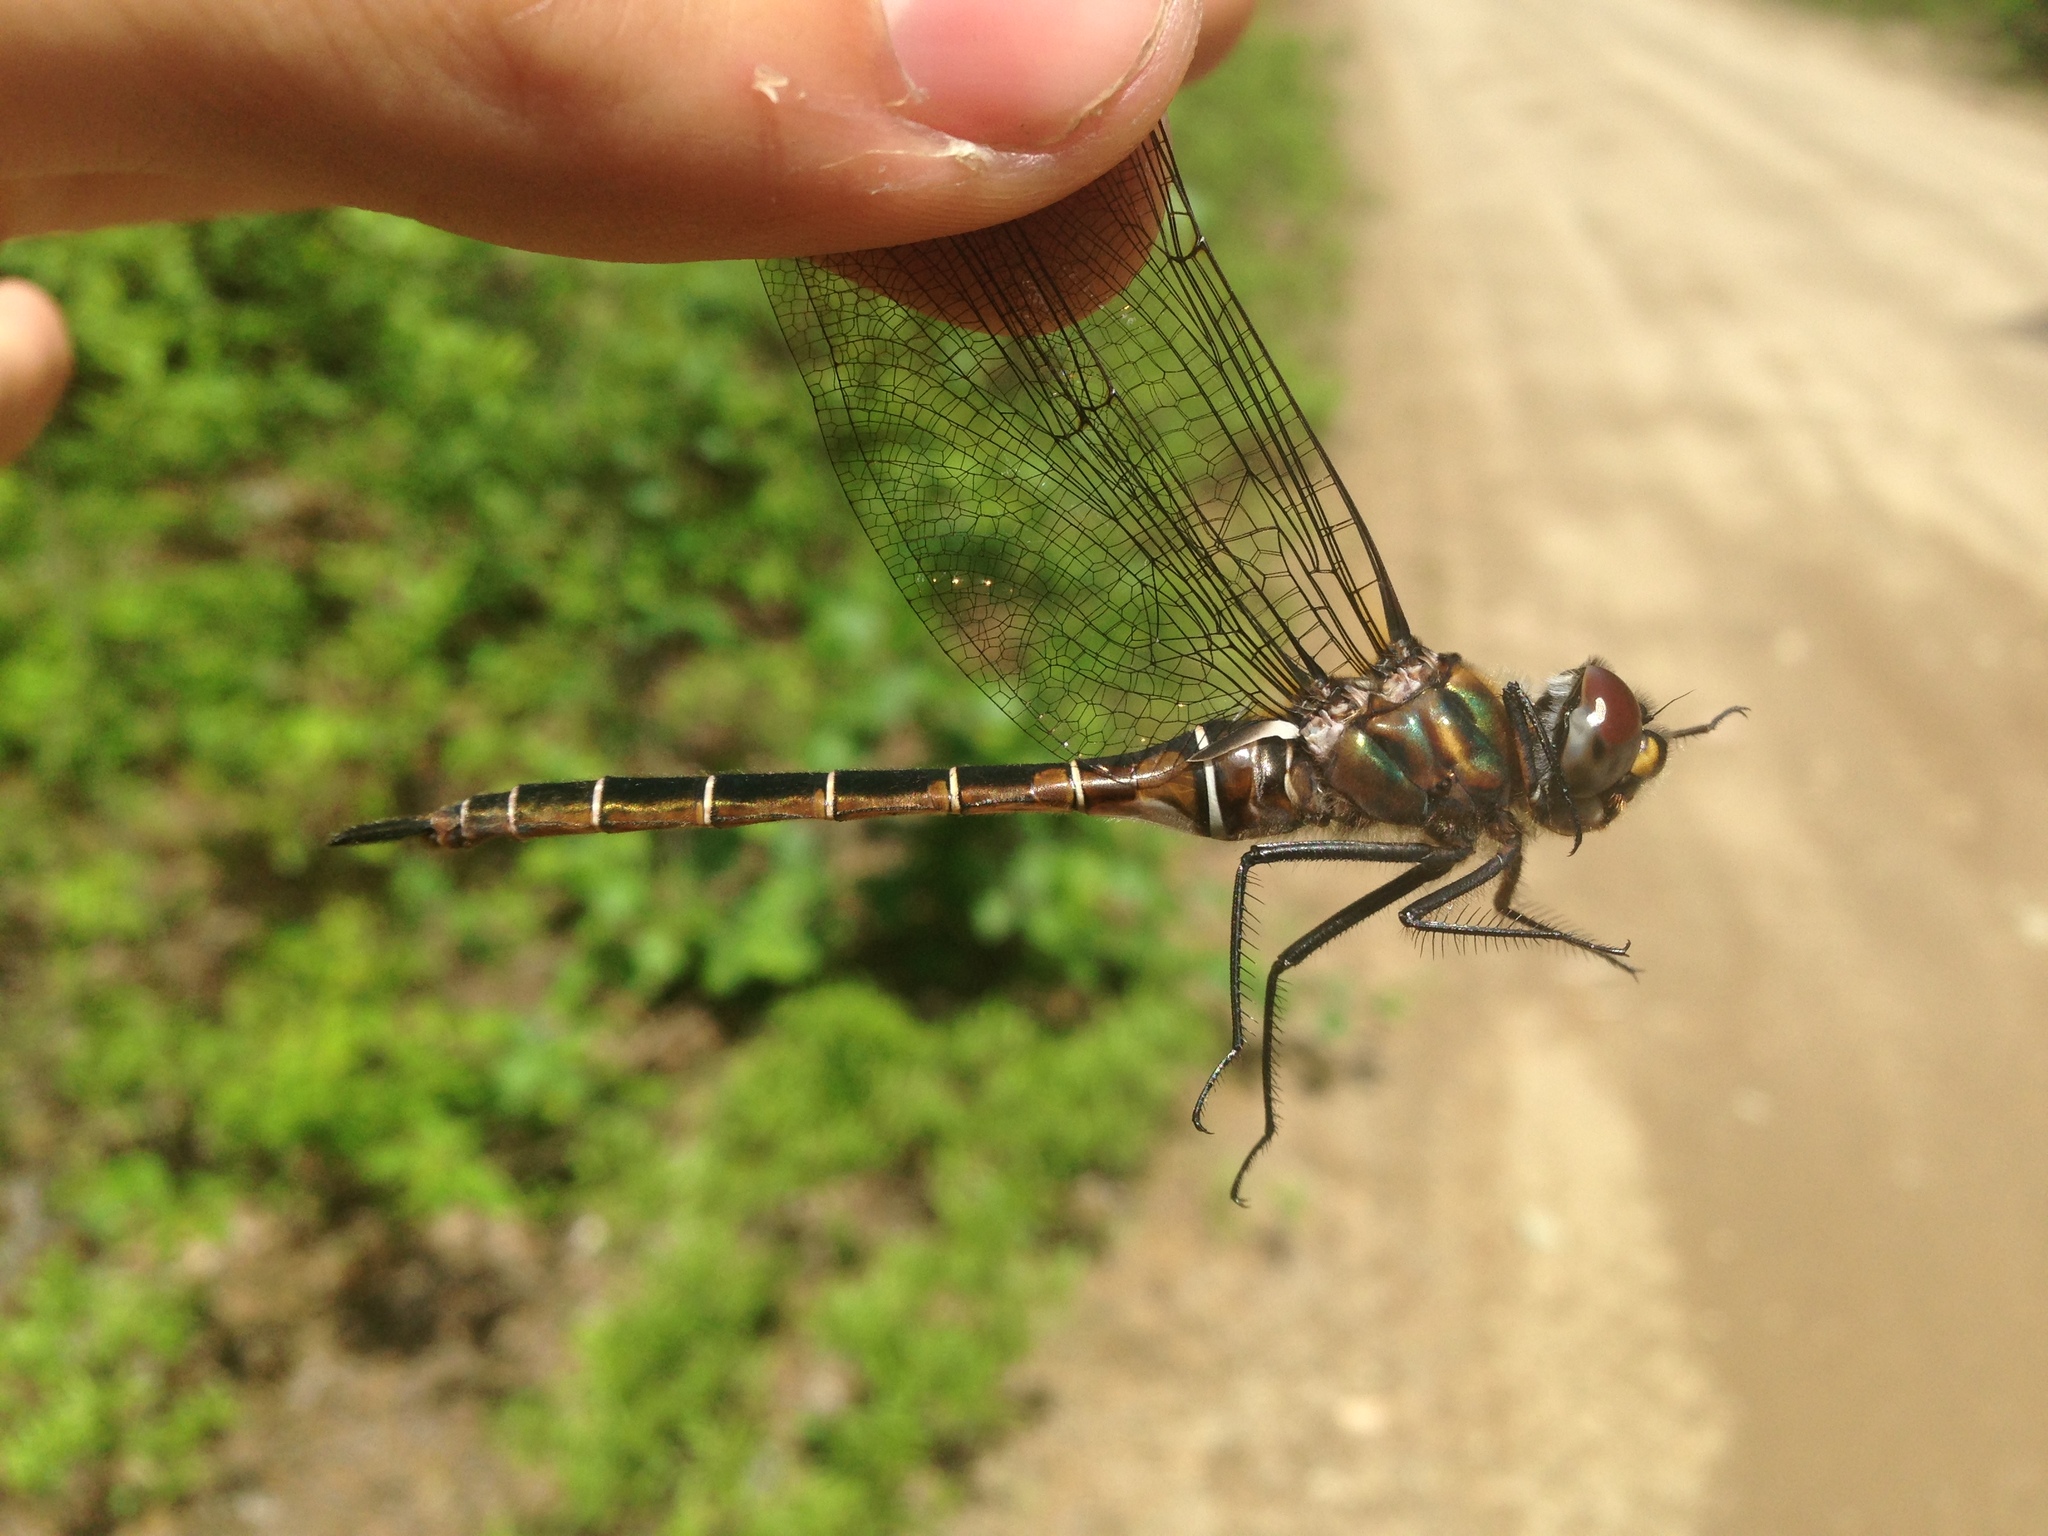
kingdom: Animalia
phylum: Arthropoda
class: Insecta
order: Odonata
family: Corduliidae
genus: Somatochlora
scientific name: Somatochlora cingulata
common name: Lake emerald
